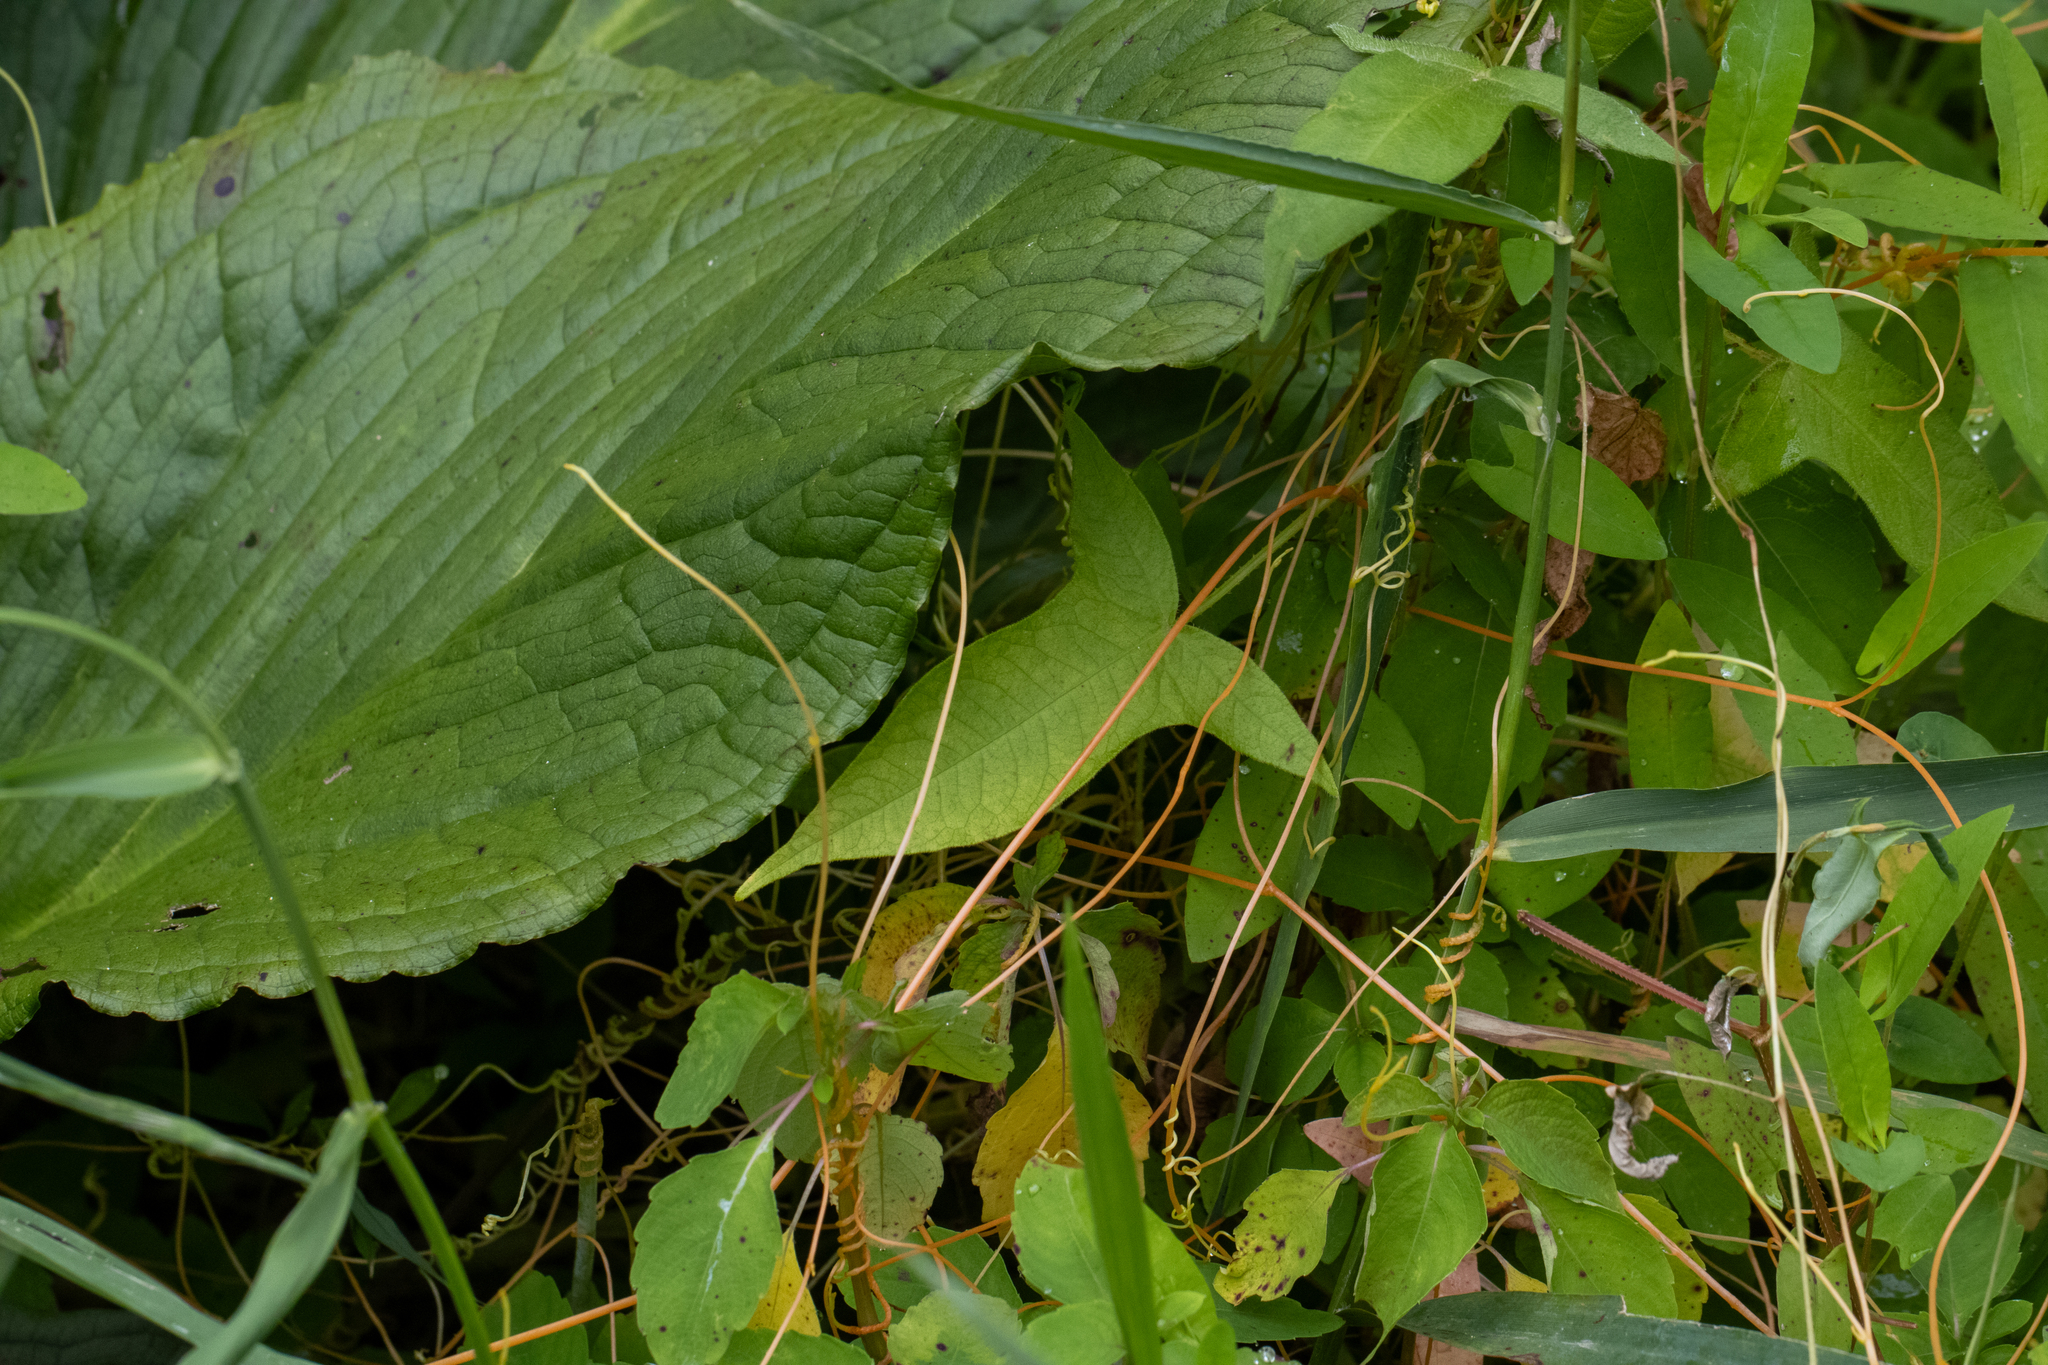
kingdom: Plantae
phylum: Tracheophyta
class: Magnoliopsida
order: Caryophyllales
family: Polygonaceae
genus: Persicaria
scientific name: Persicaria arifolia
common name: Halberd-leaved tear-thumb
